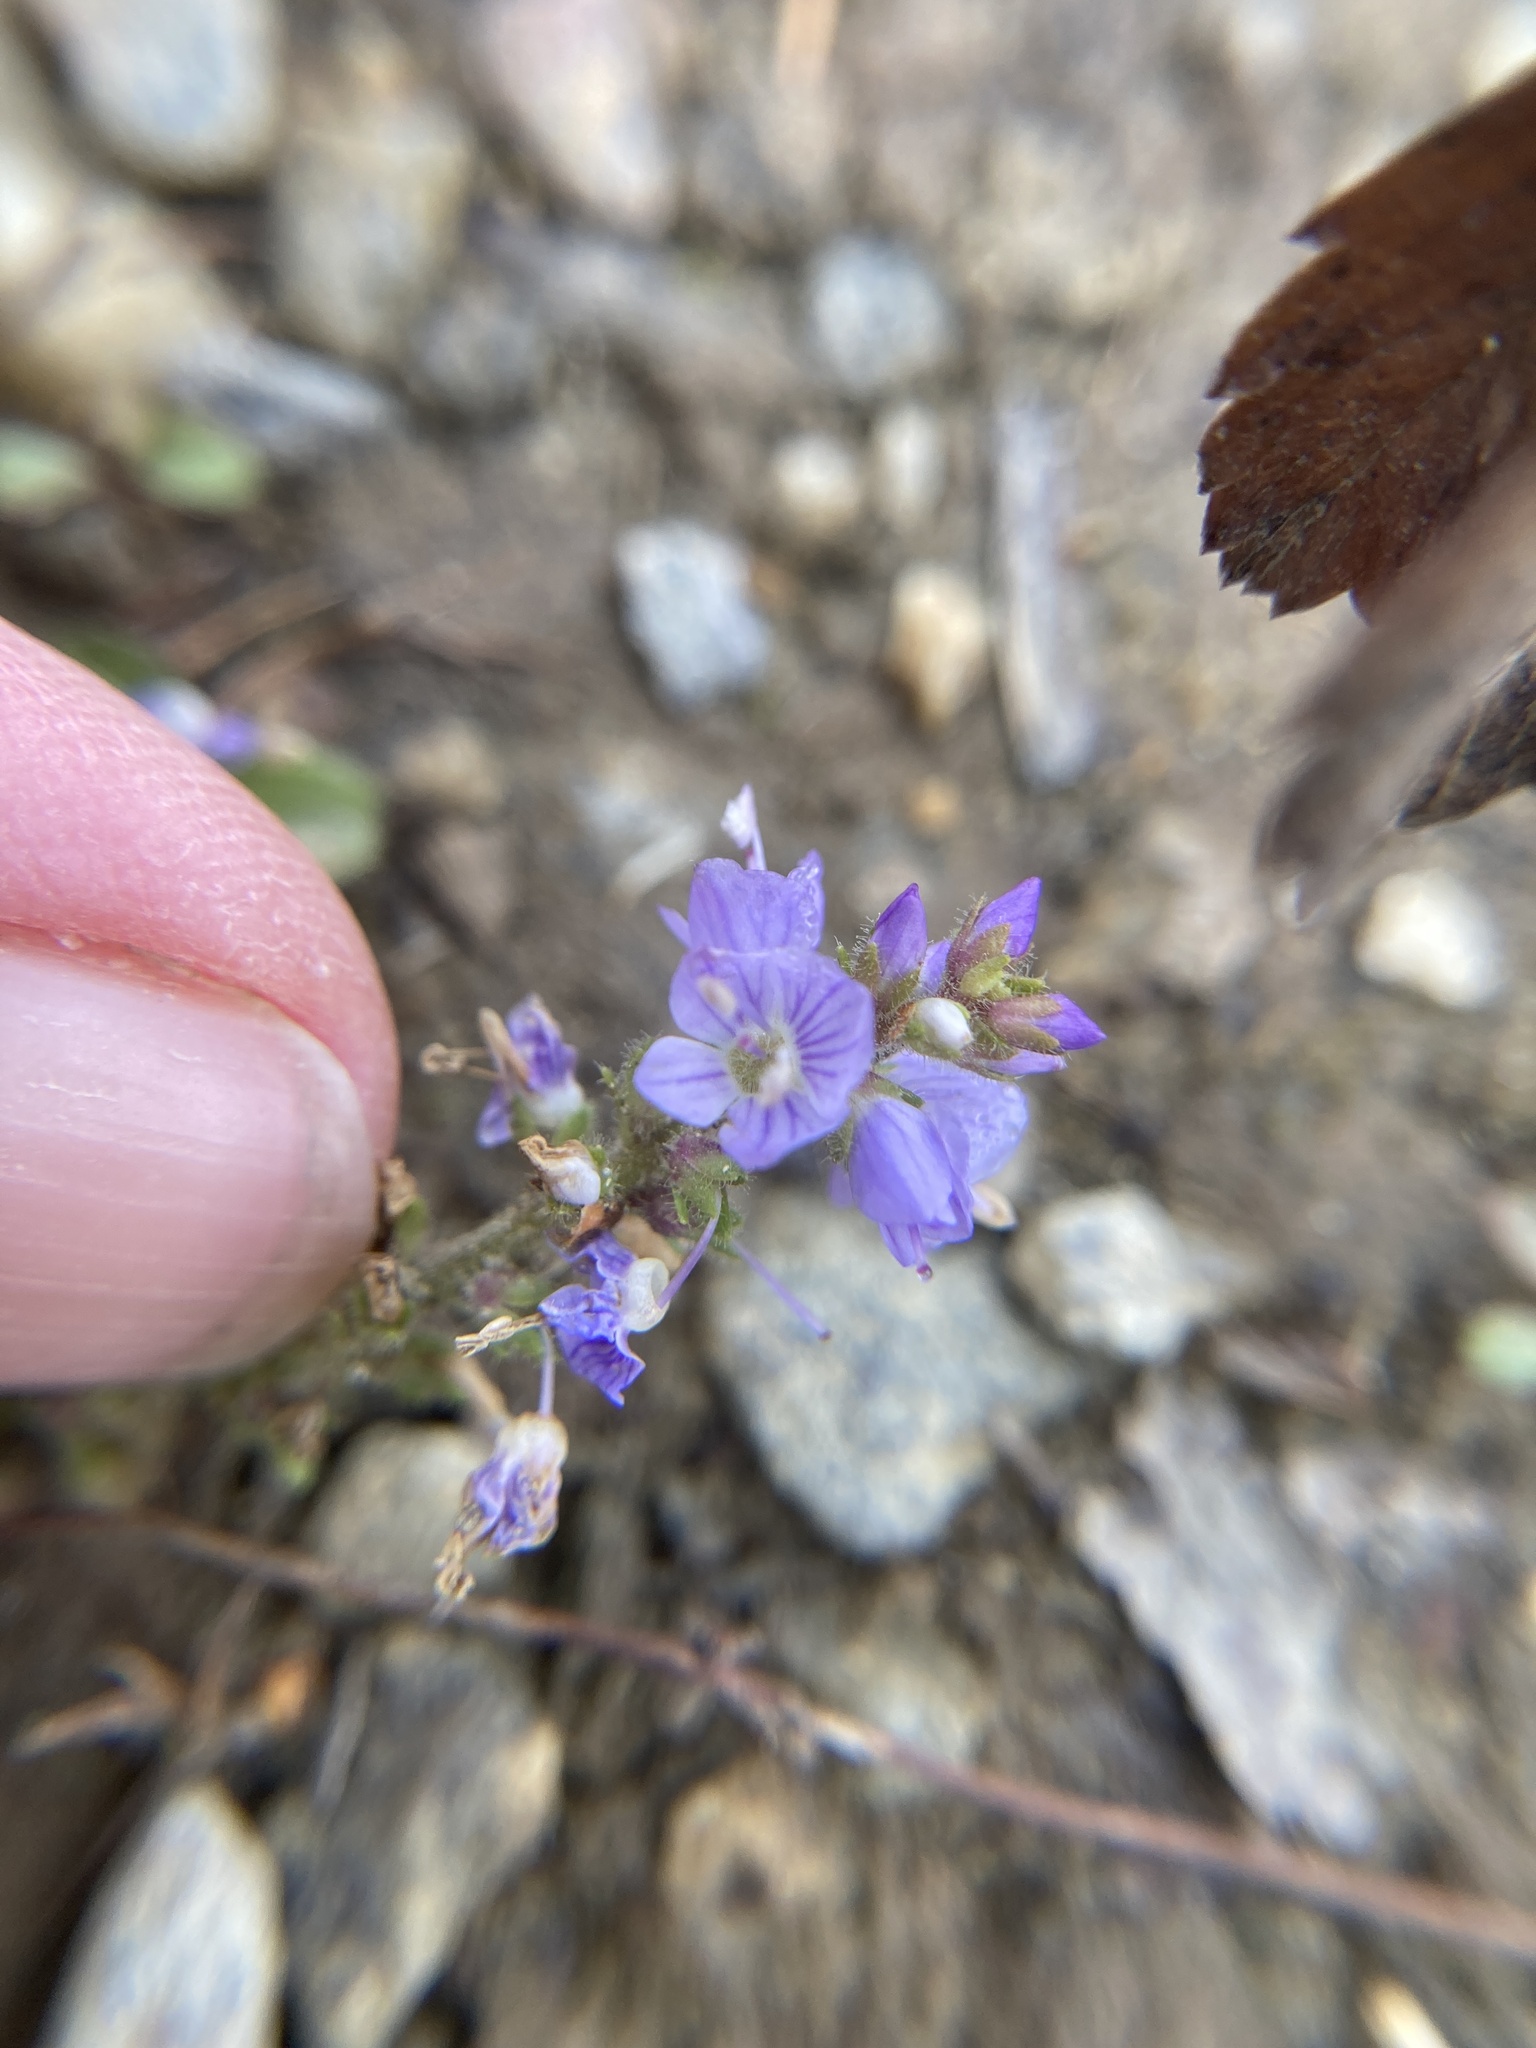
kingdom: Plantae
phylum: Tracheophyta
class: Magnoliopsida
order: Lamiales
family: Plantaginaceae
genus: Veronica
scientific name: Veronica officinalis
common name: Common speedwell
